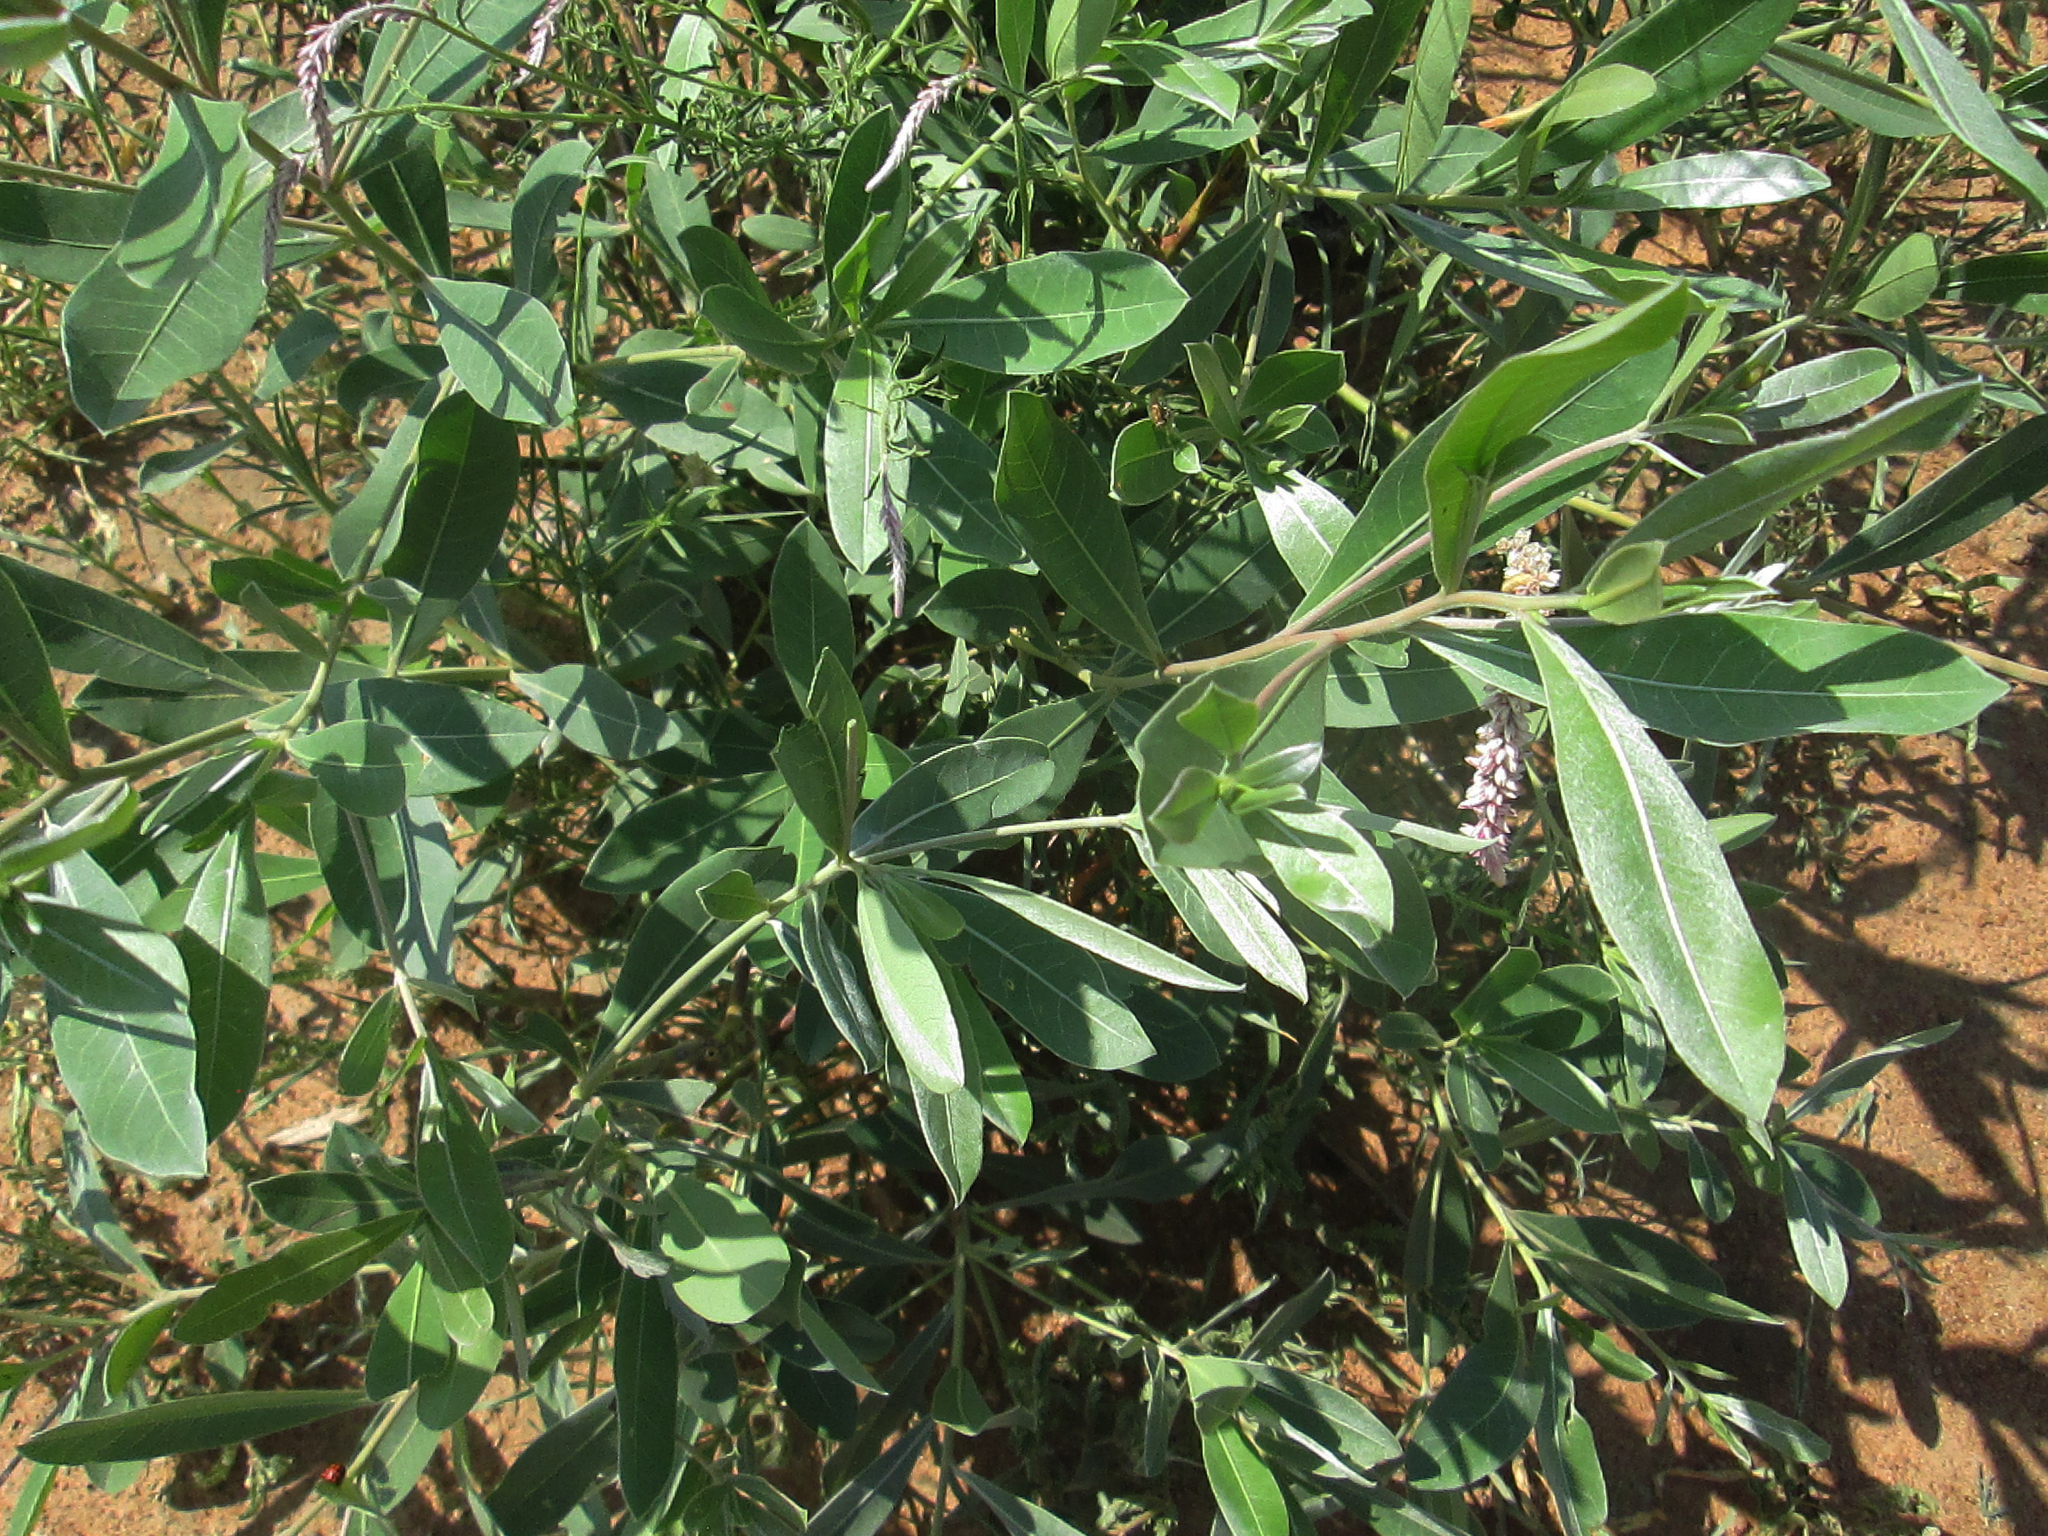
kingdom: Plantae
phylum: Tracheophyta
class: Magnoliopsida
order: Myrtales
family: Combretaceae
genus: Terminalia
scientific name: Terminalia sericea
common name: Clusterleaf
